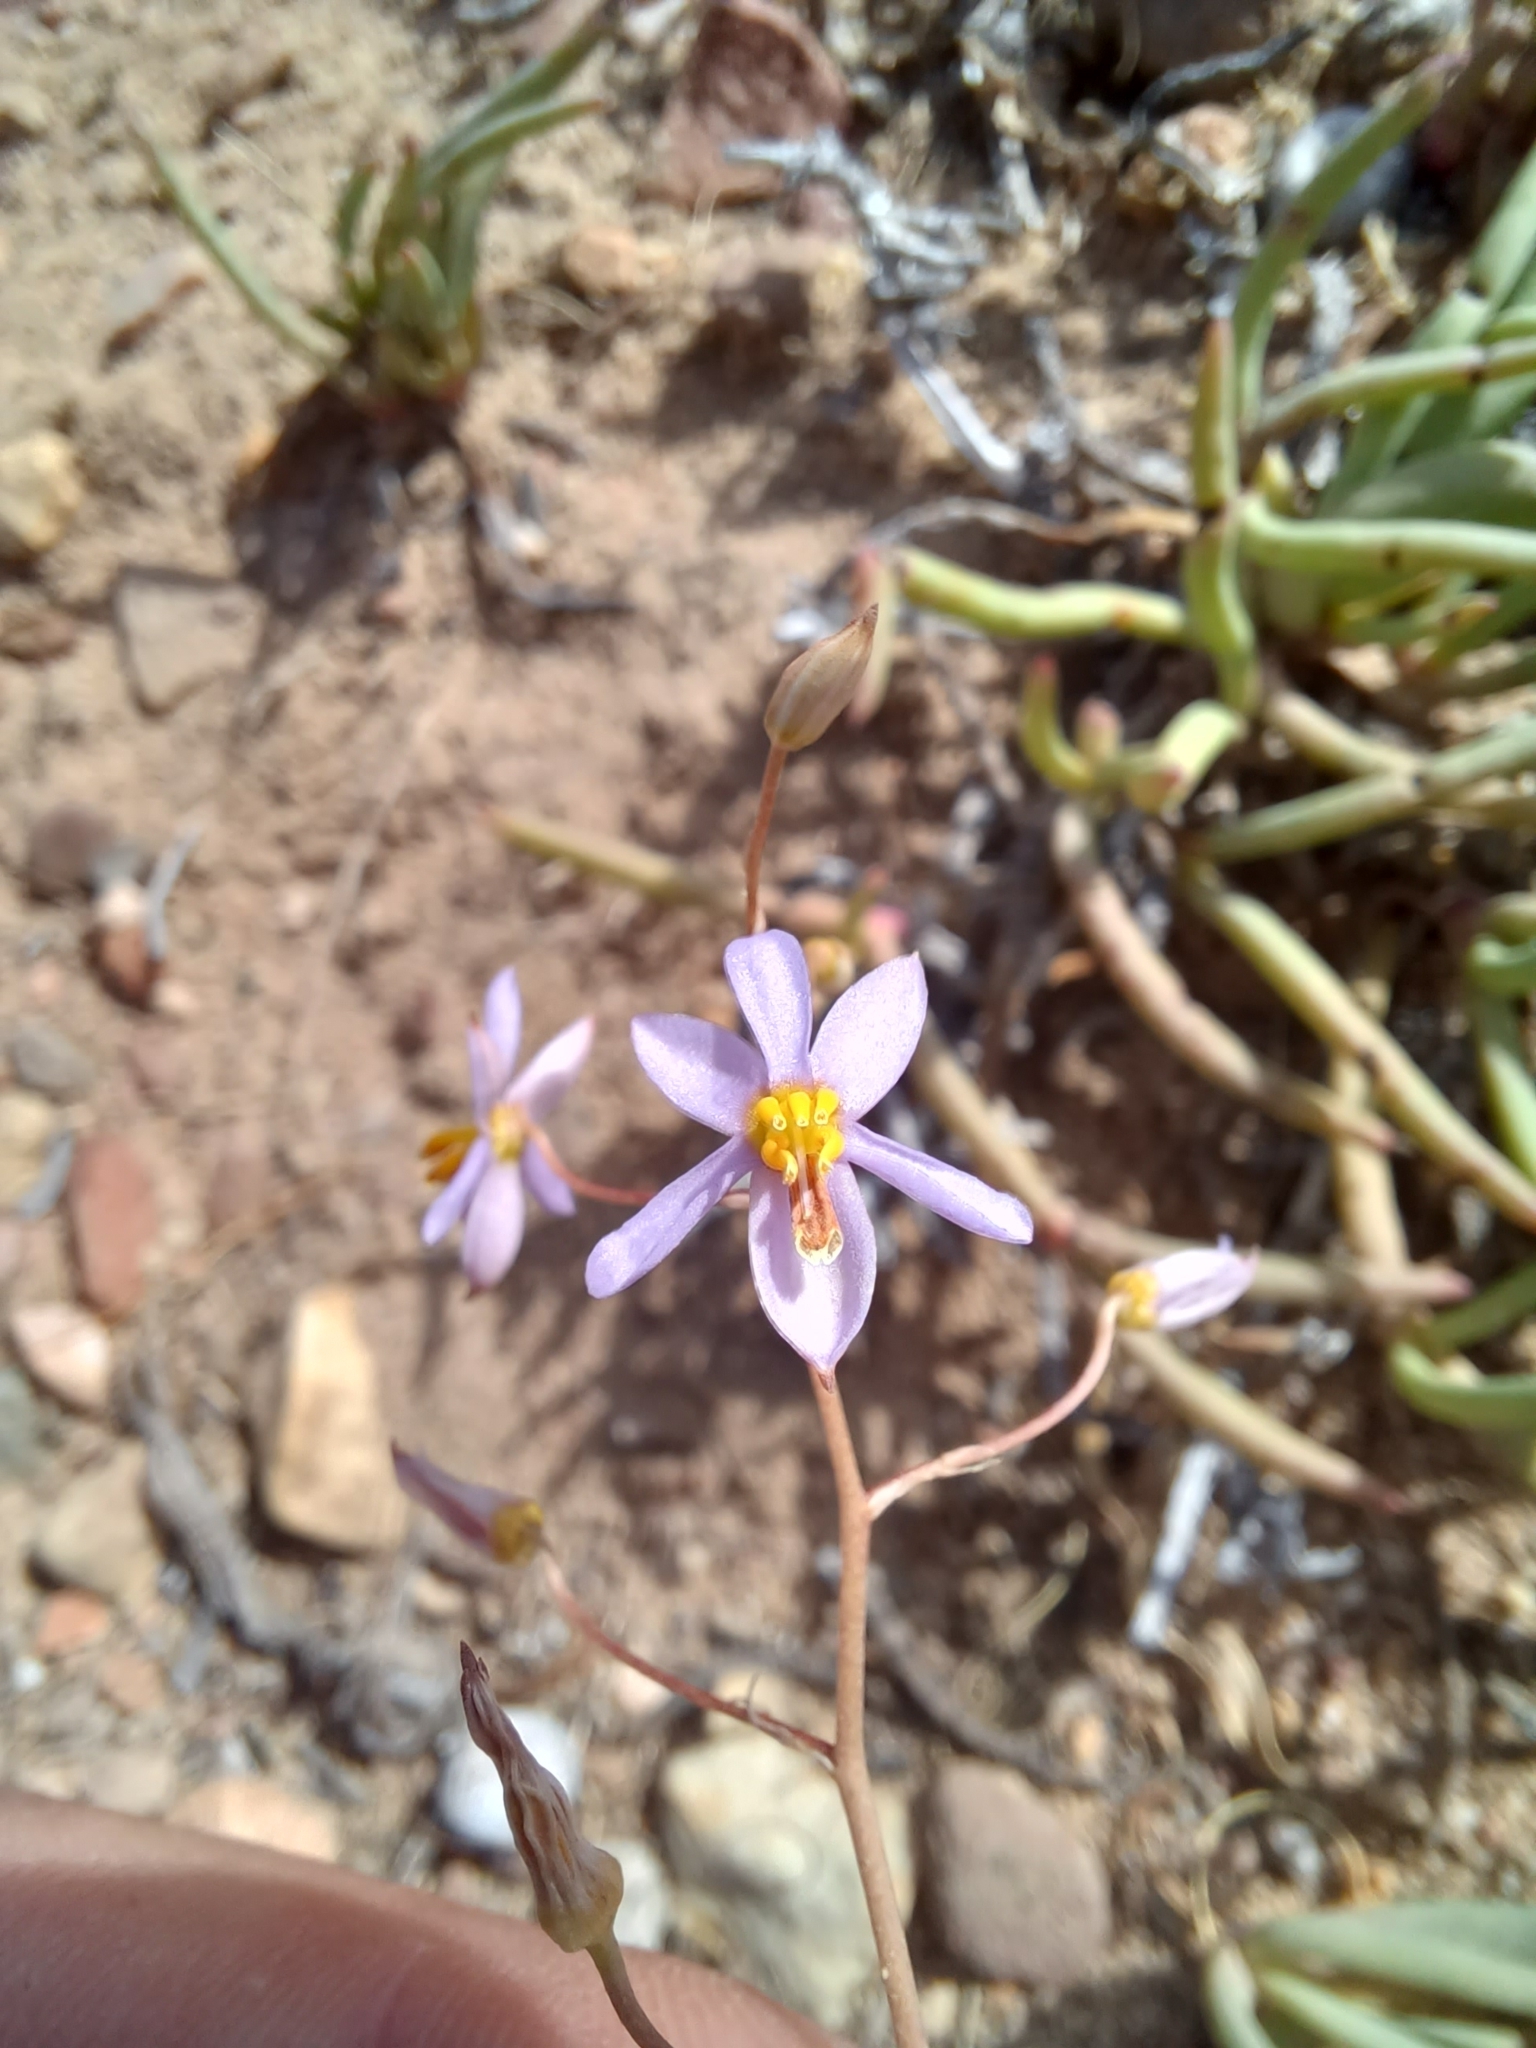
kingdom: Plantae
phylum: Tracheophyta
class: Liliopsida
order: Asparagales
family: Tecophilaeaceae
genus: Cyanella
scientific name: Cyanella hyacinthoides
